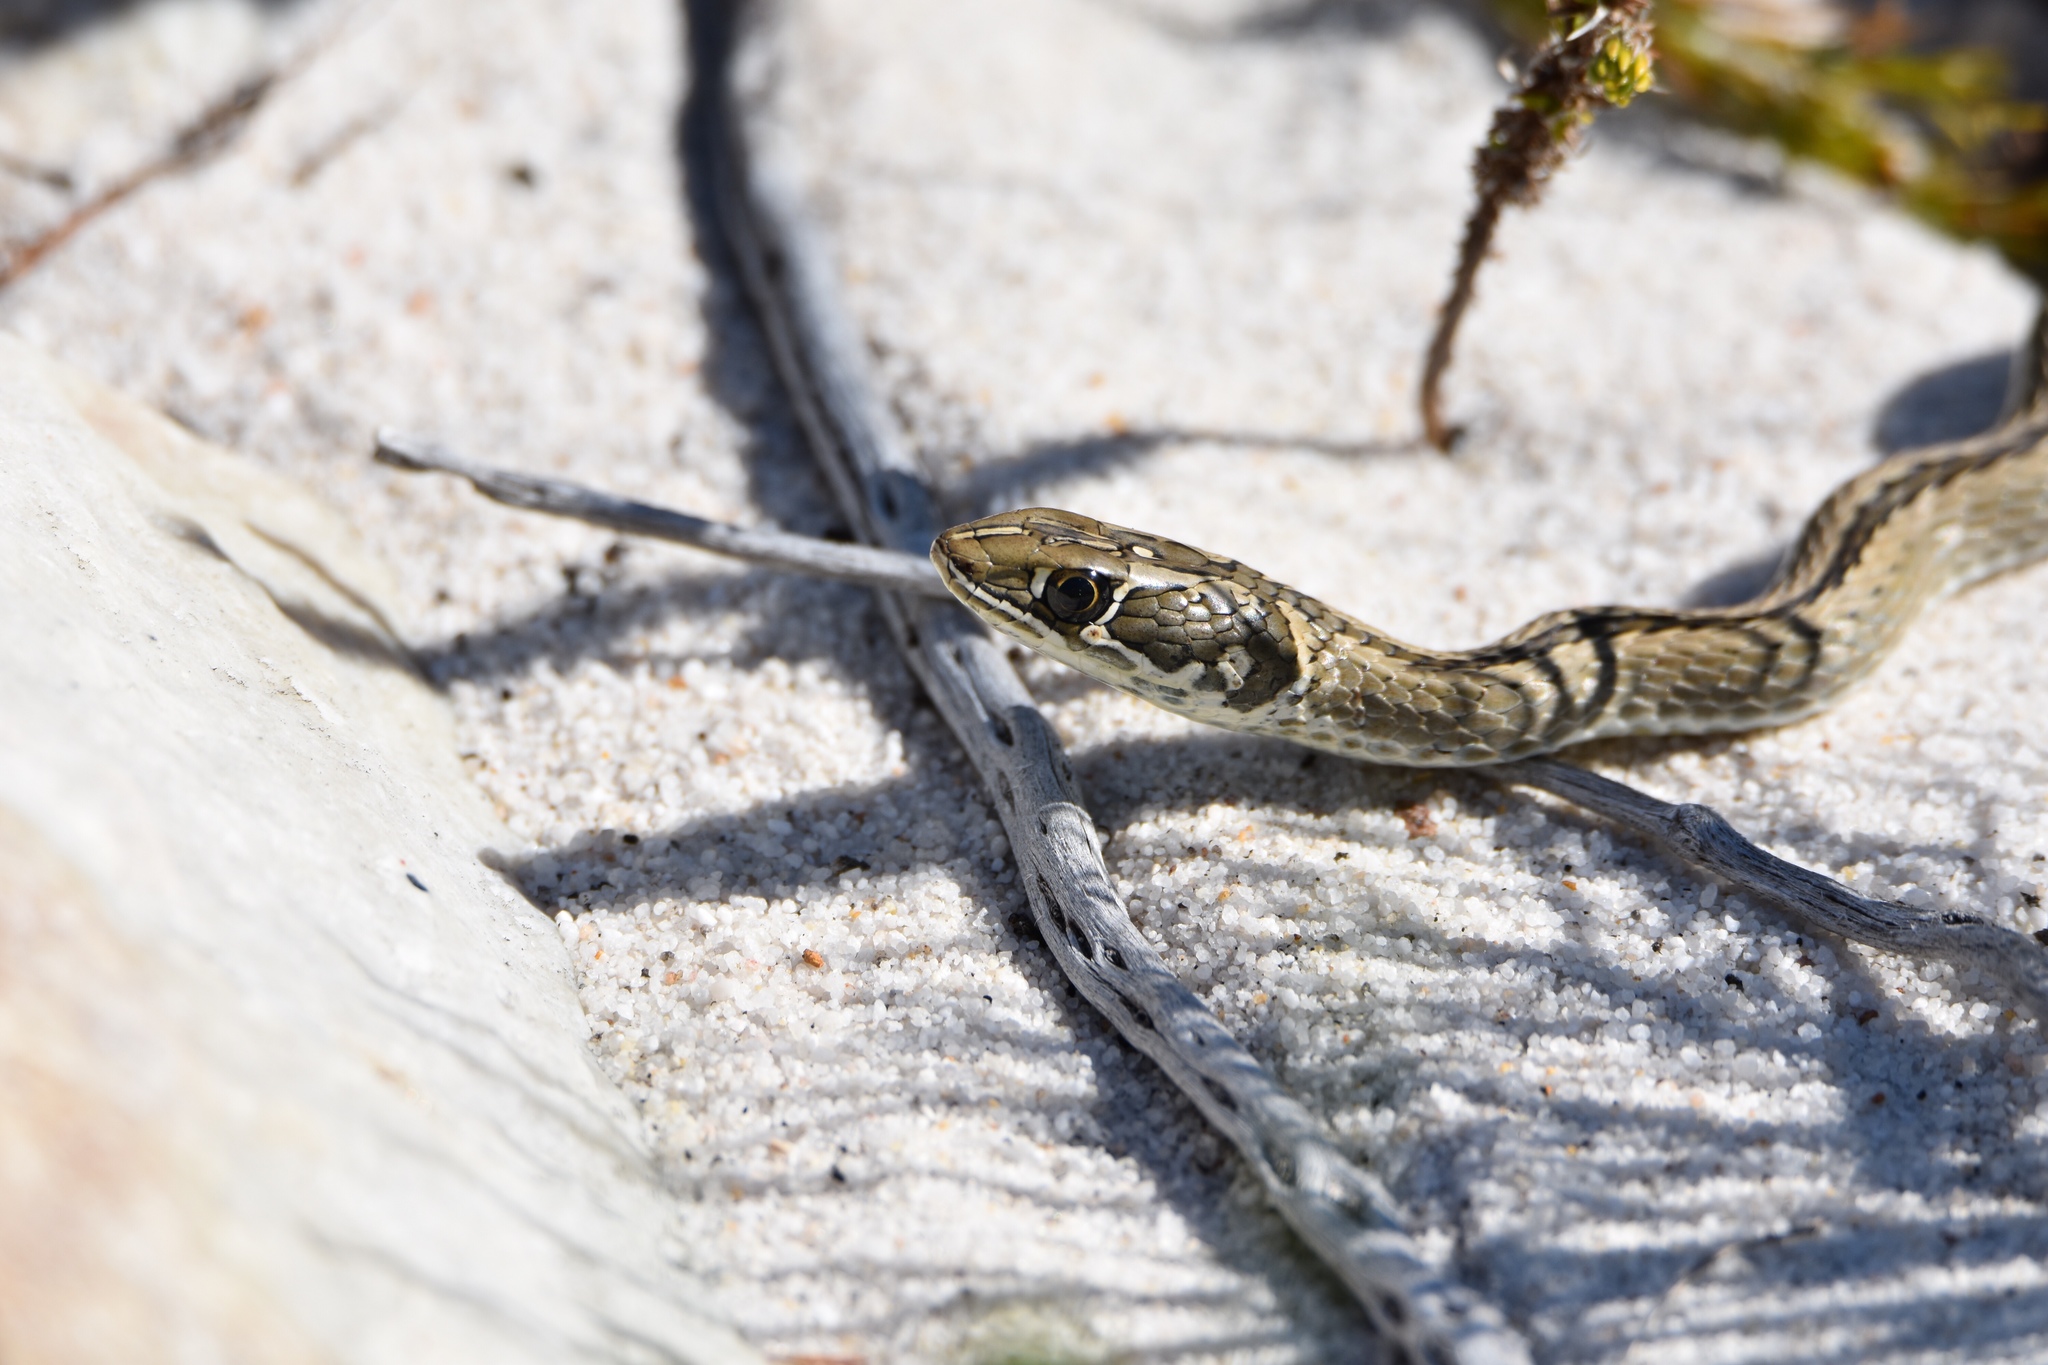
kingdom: Animalia
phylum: Chordata
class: Squamata
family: Psammophiidae
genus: Psammophis
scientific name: Psammophis crucifer
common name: Cross-marked grass snake
